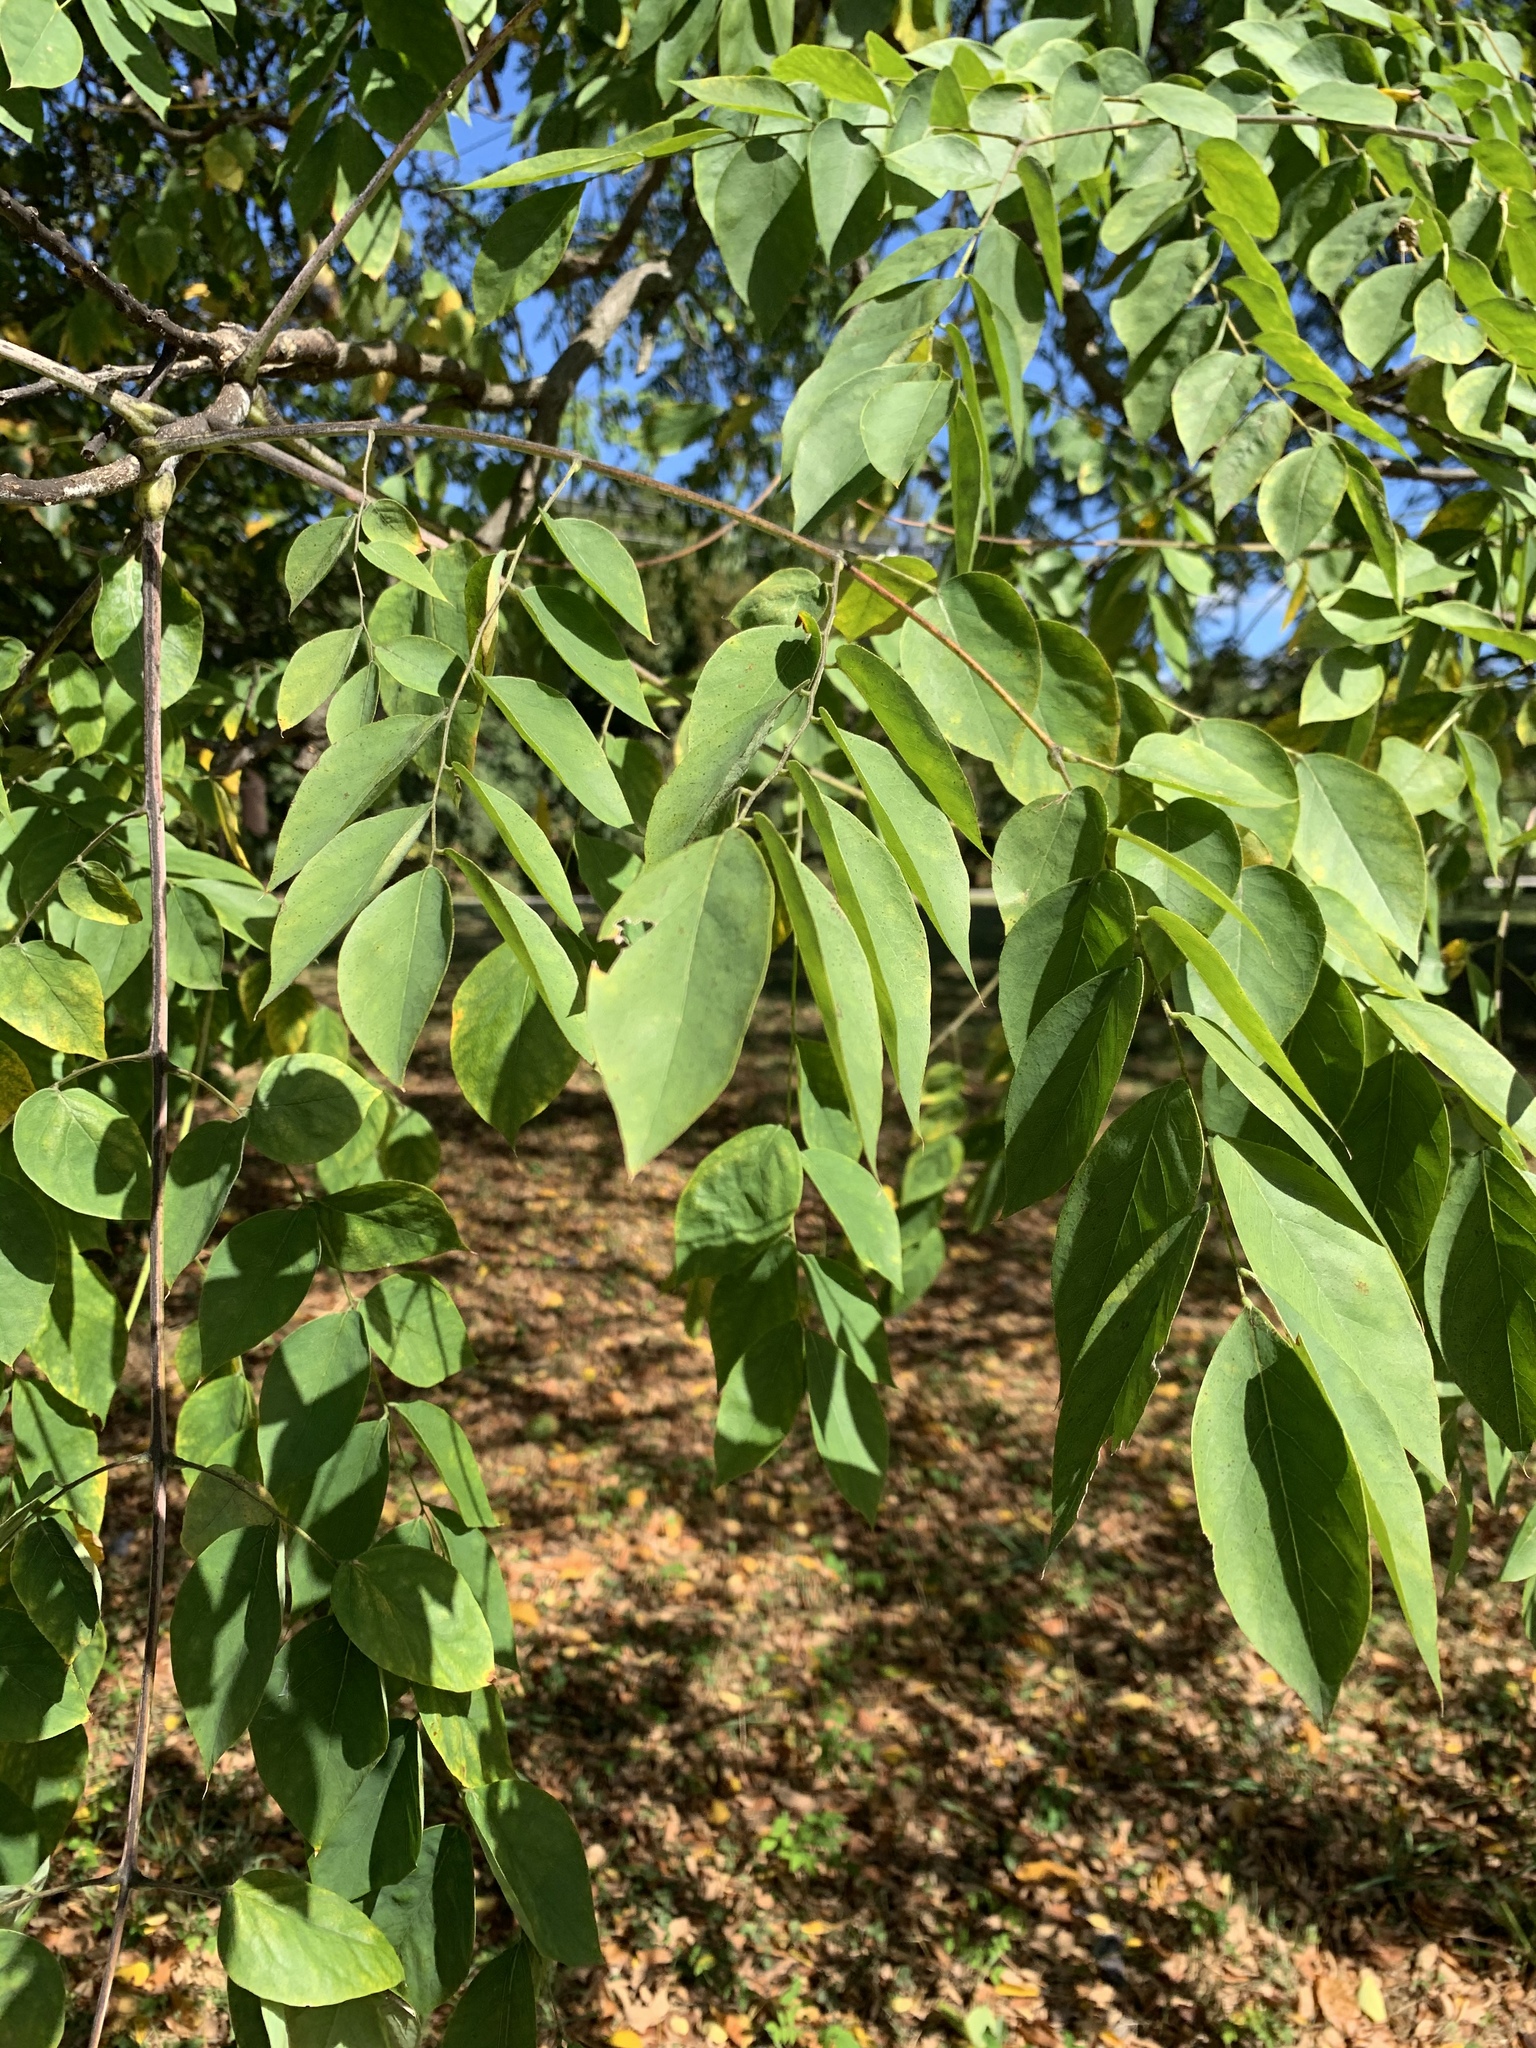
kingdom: Plantae
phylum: Tracheophyta
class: Magnoliopsida
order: Fabales
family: Fabaceae
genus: Gymnocladus
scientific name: Gymnocladus dioicus
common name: Kentucky coffee-tree
